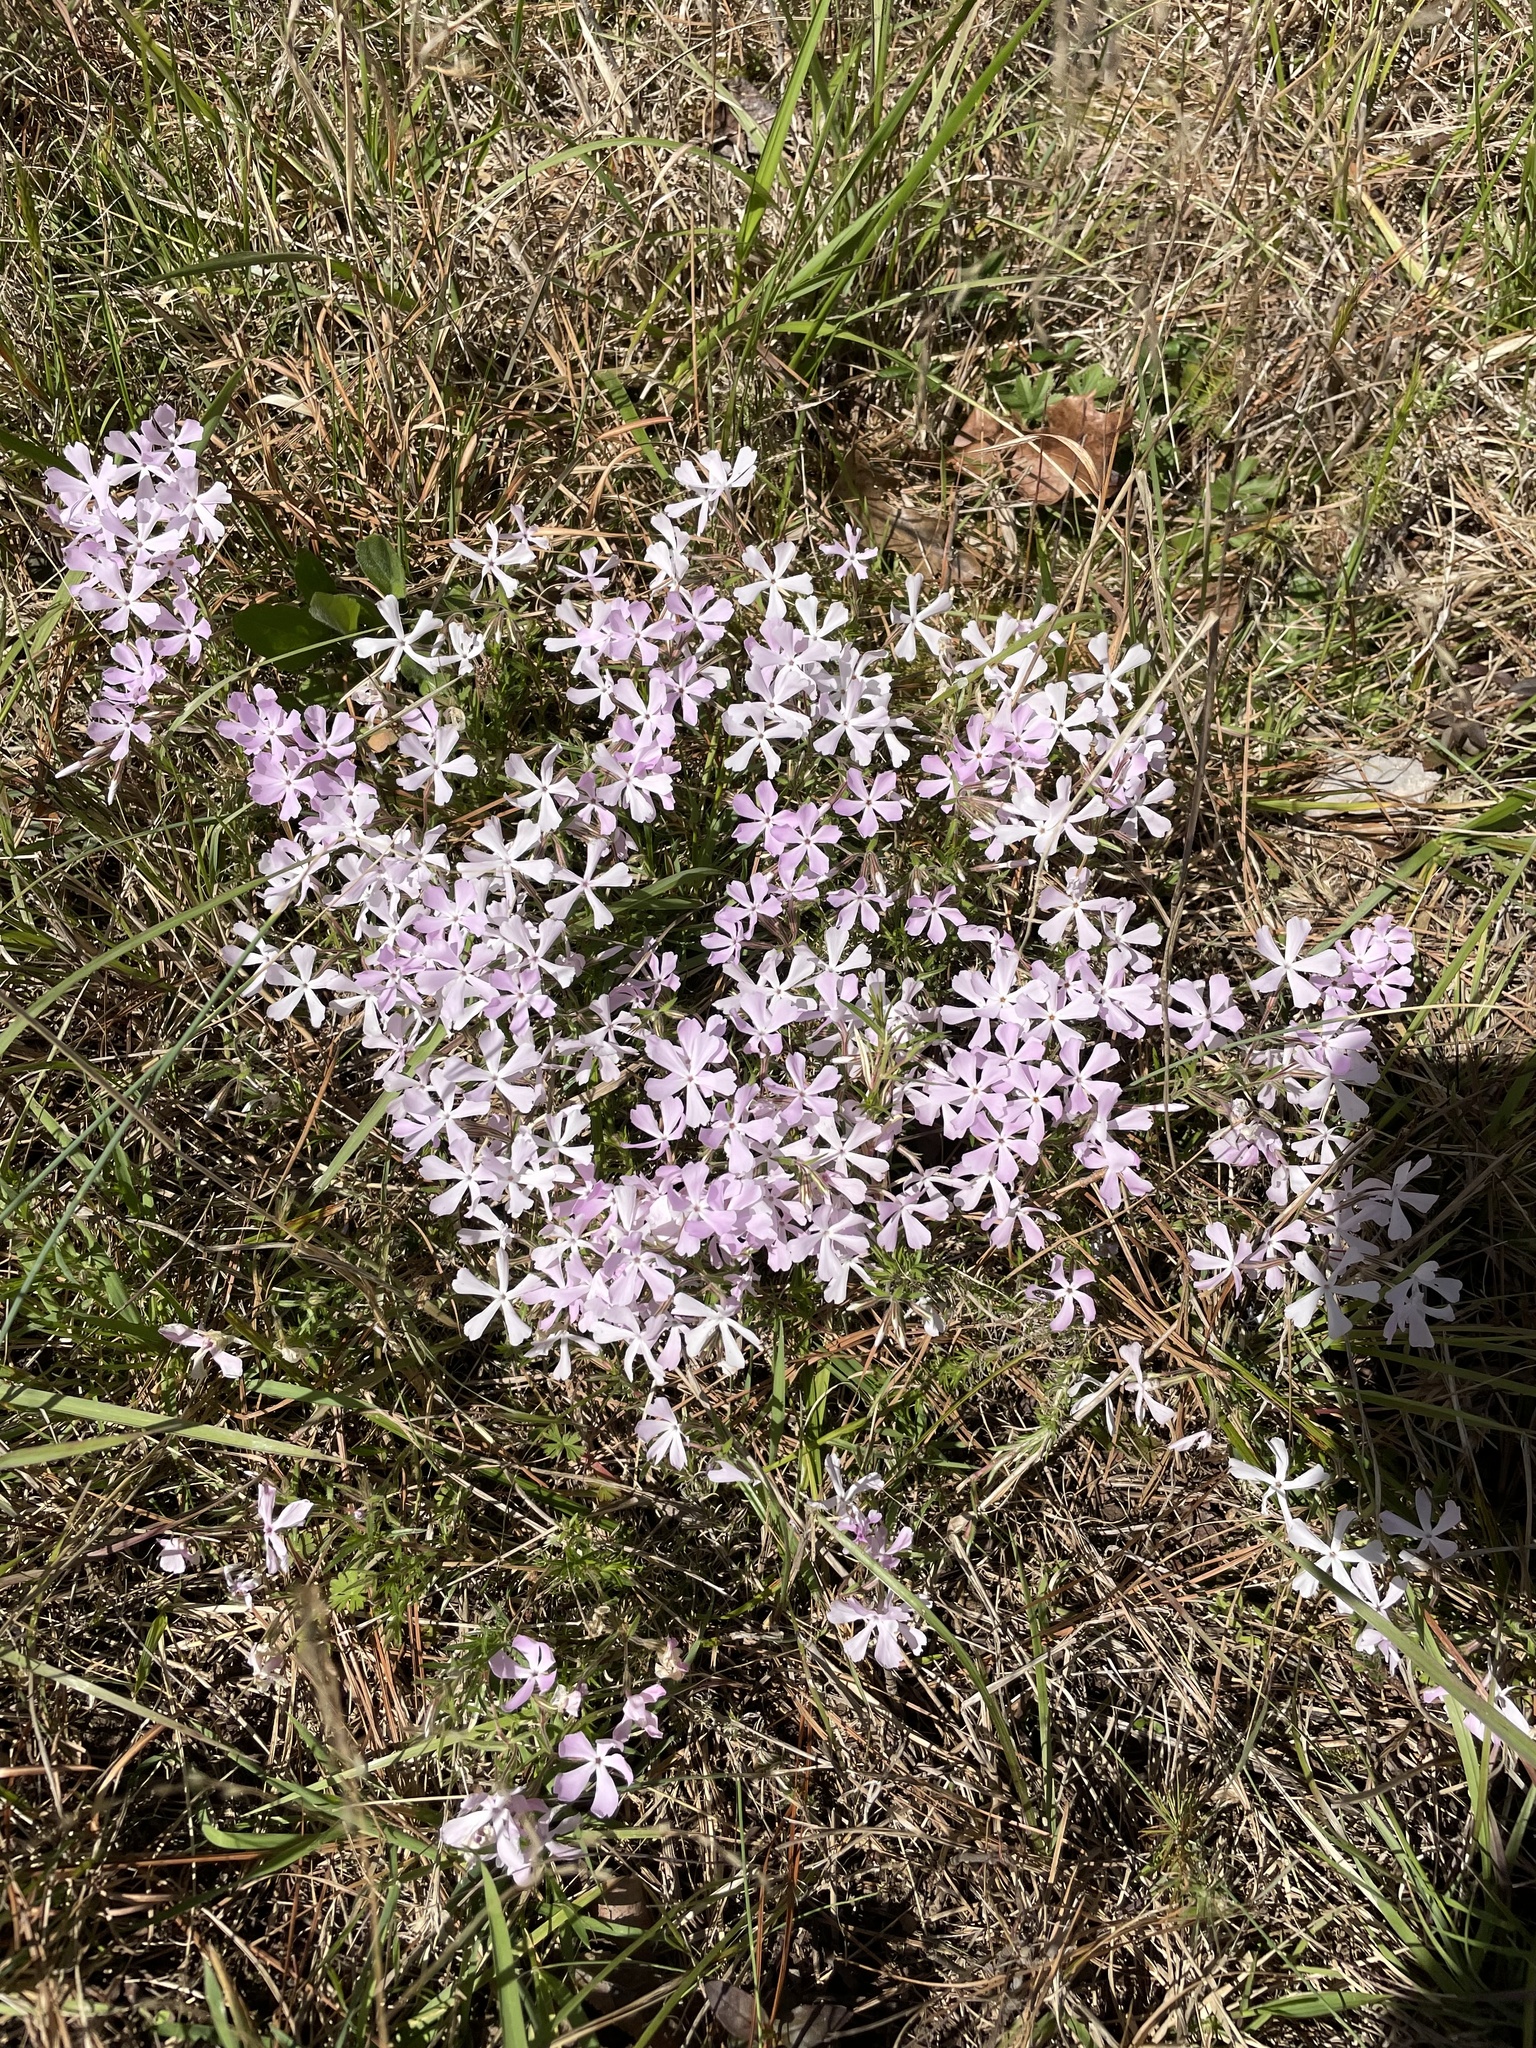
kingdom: Plantae
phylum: Tracheophyta
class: Magnoliopsida
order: Ericales
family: Polemoniaceae
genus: Phlox
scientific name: Phlox nivalis
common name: Trailing phlox
